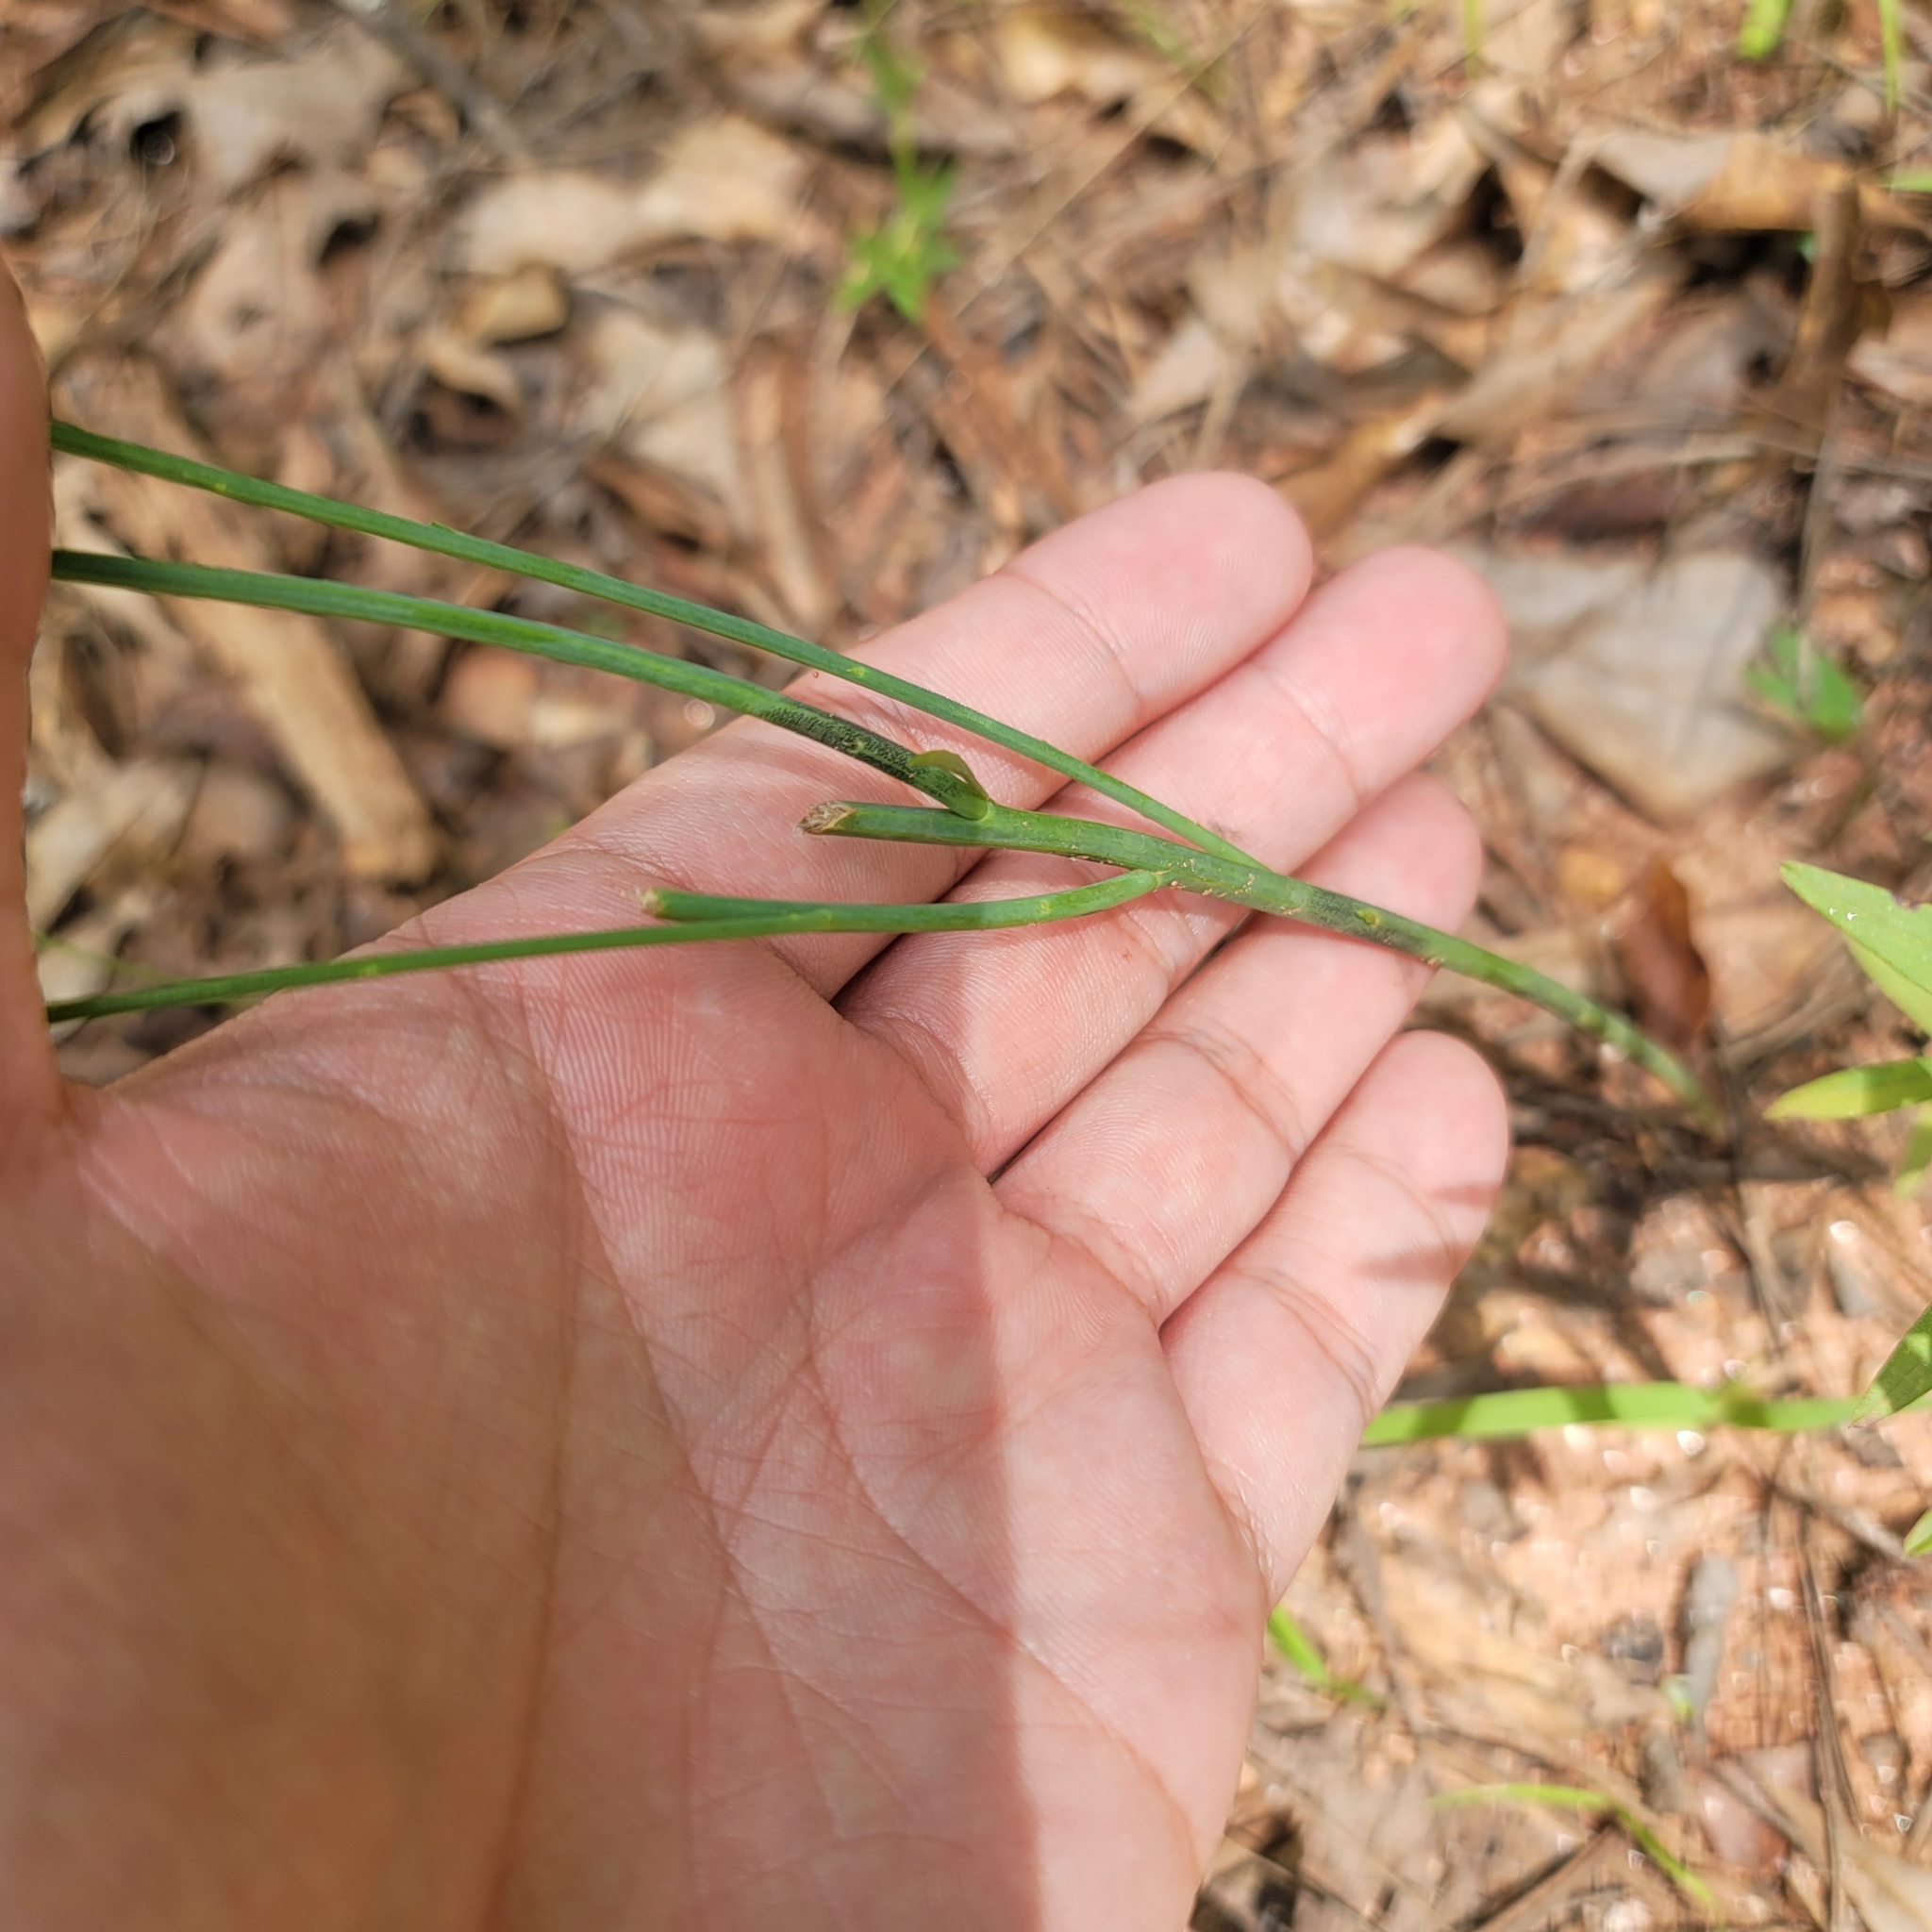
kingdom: Plantae
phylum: Tracheophyta
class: Magnoliopsida
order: Fabales
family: Polygalaceae
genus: Polygala
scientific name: Polygala incarnata
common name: Pink milkwort
